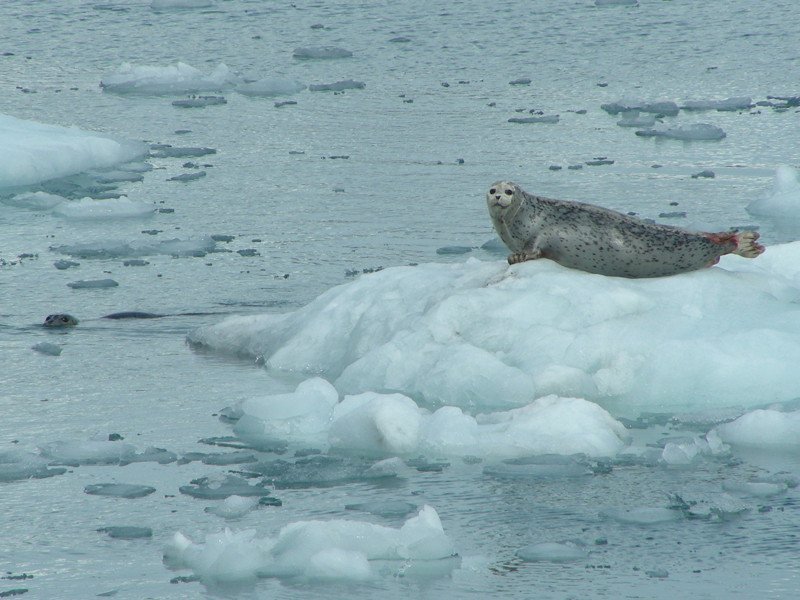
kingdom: Animalia
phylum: Chordata
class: Mammalia
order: Carnivora
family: Phocidae
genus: Phoca
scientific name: Phoca vitulina
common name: Harbor seal
